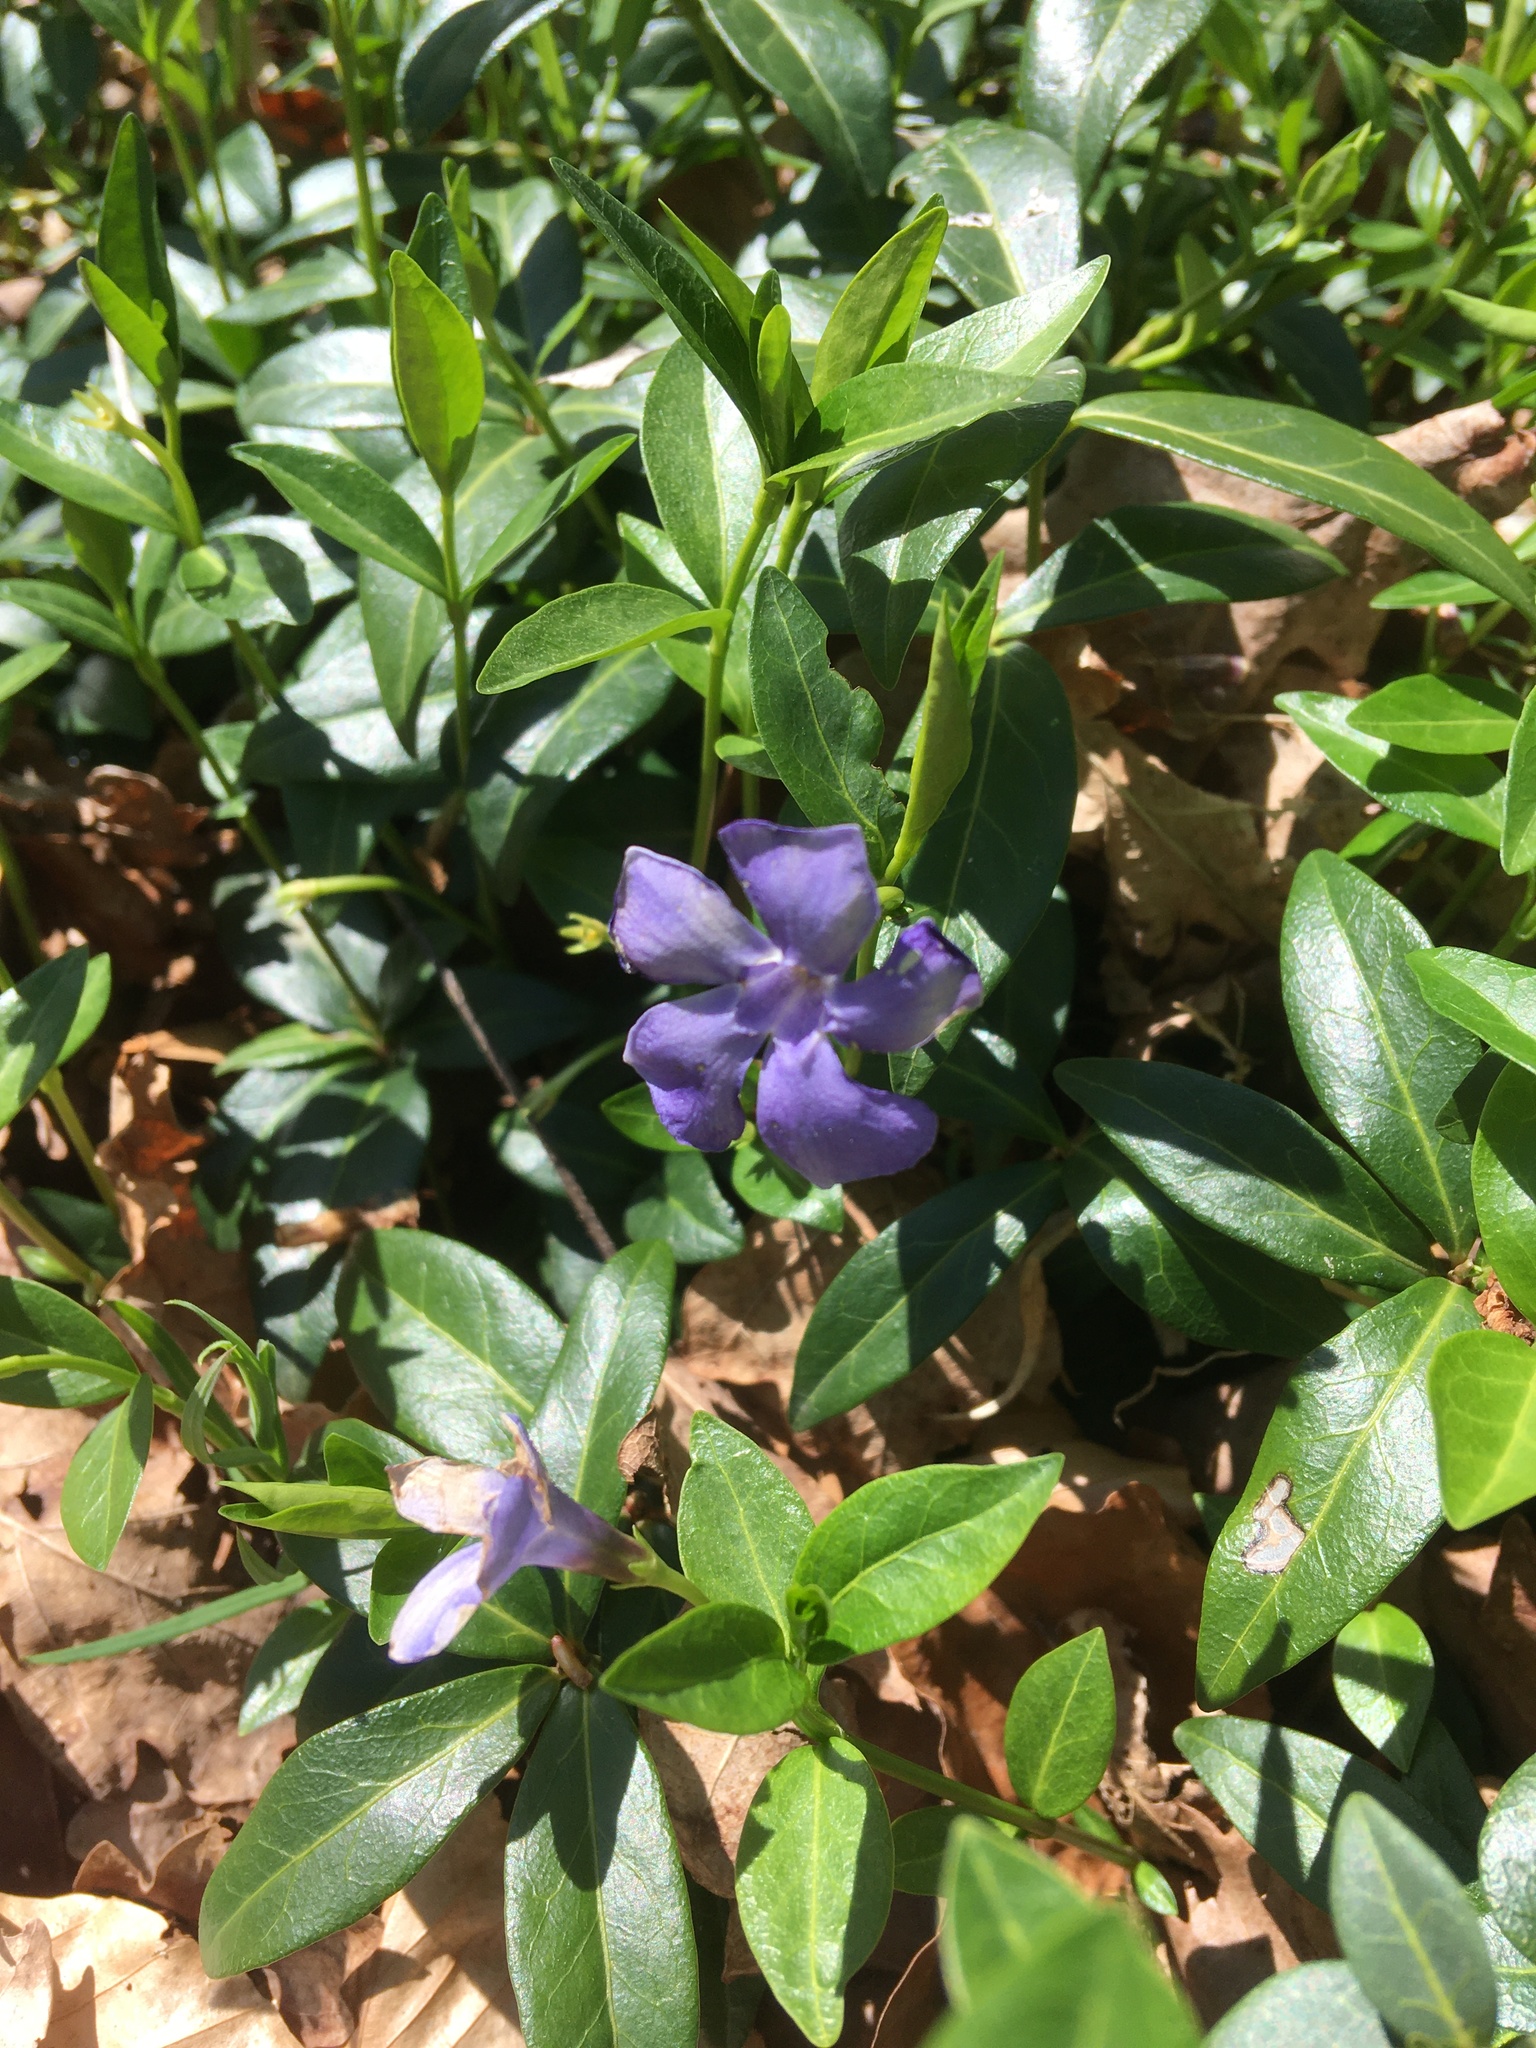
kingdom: Plantae
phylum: Tracheophyta
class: Magnoliopsida
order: Gentianales
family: Apocynaceae
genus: Vinca
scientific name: Vinca minor
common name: Lesser periwinkle
